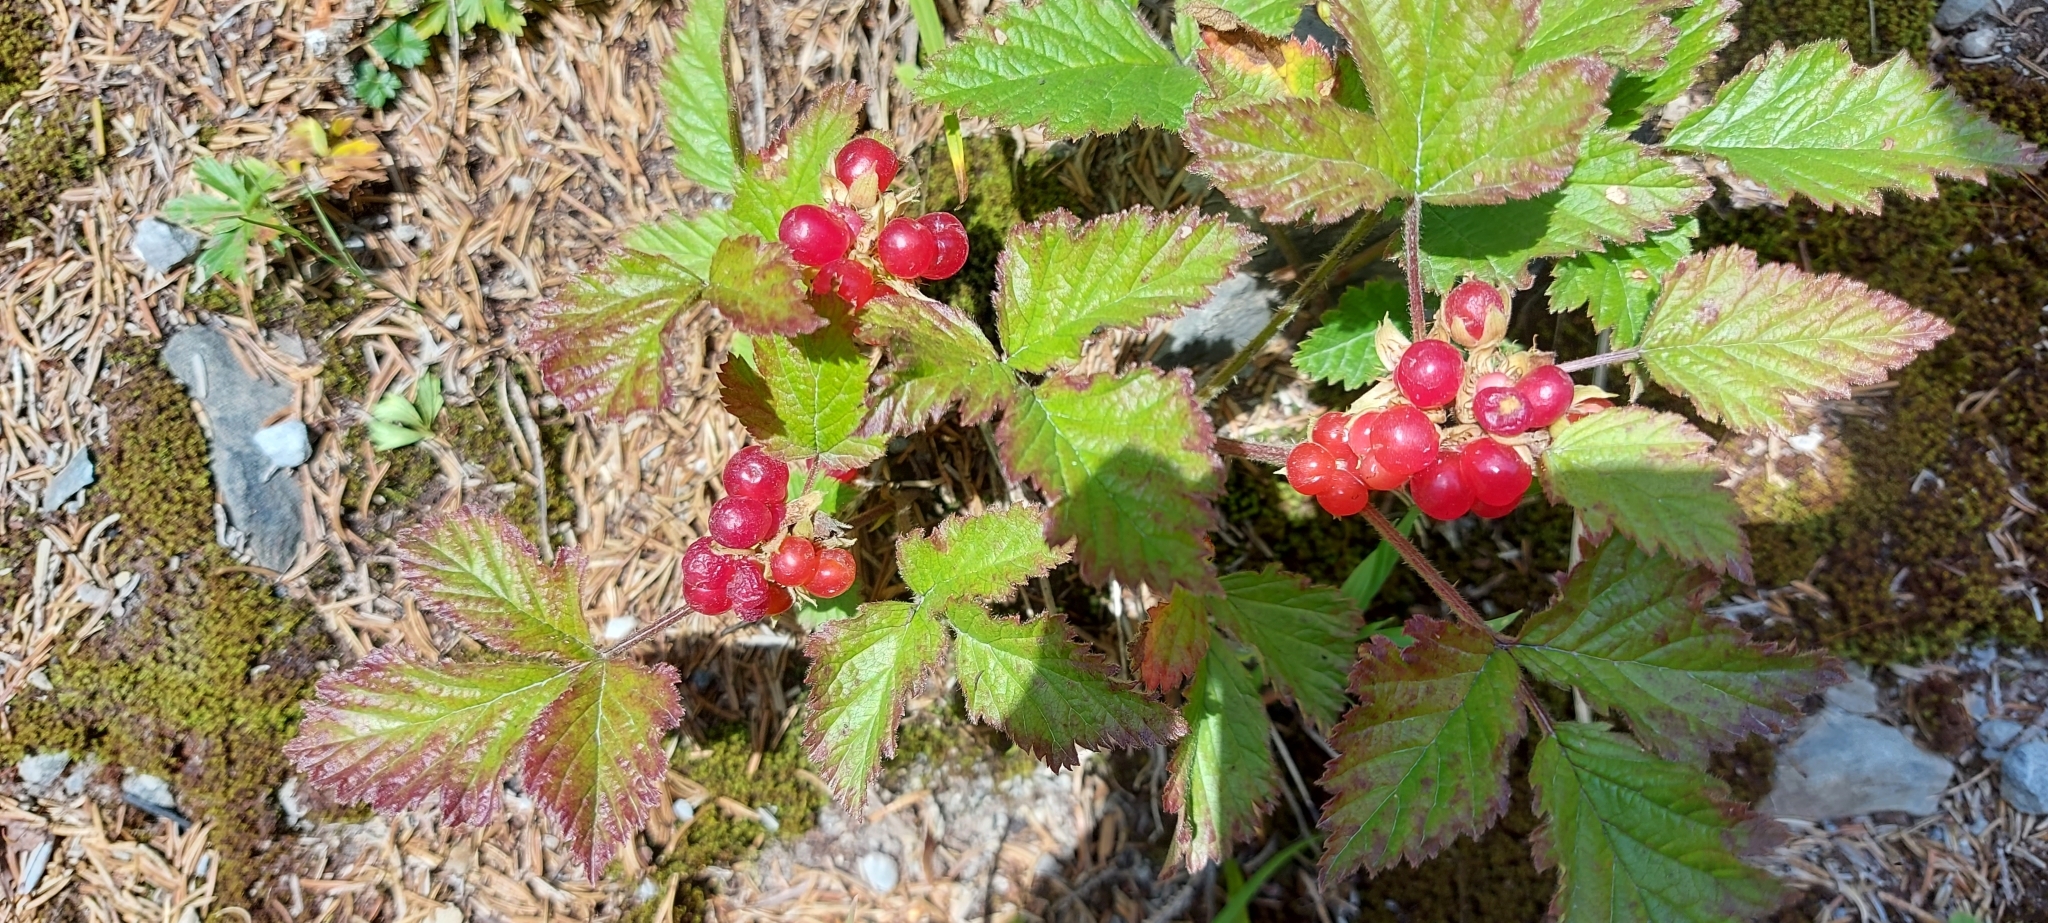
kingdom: Plantae
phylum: Tracheophyta
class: Magnoliopsida
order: Rosales
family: Rosaceae
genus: Rubus
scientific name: Rubus saxatilis
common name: Stone bramble
